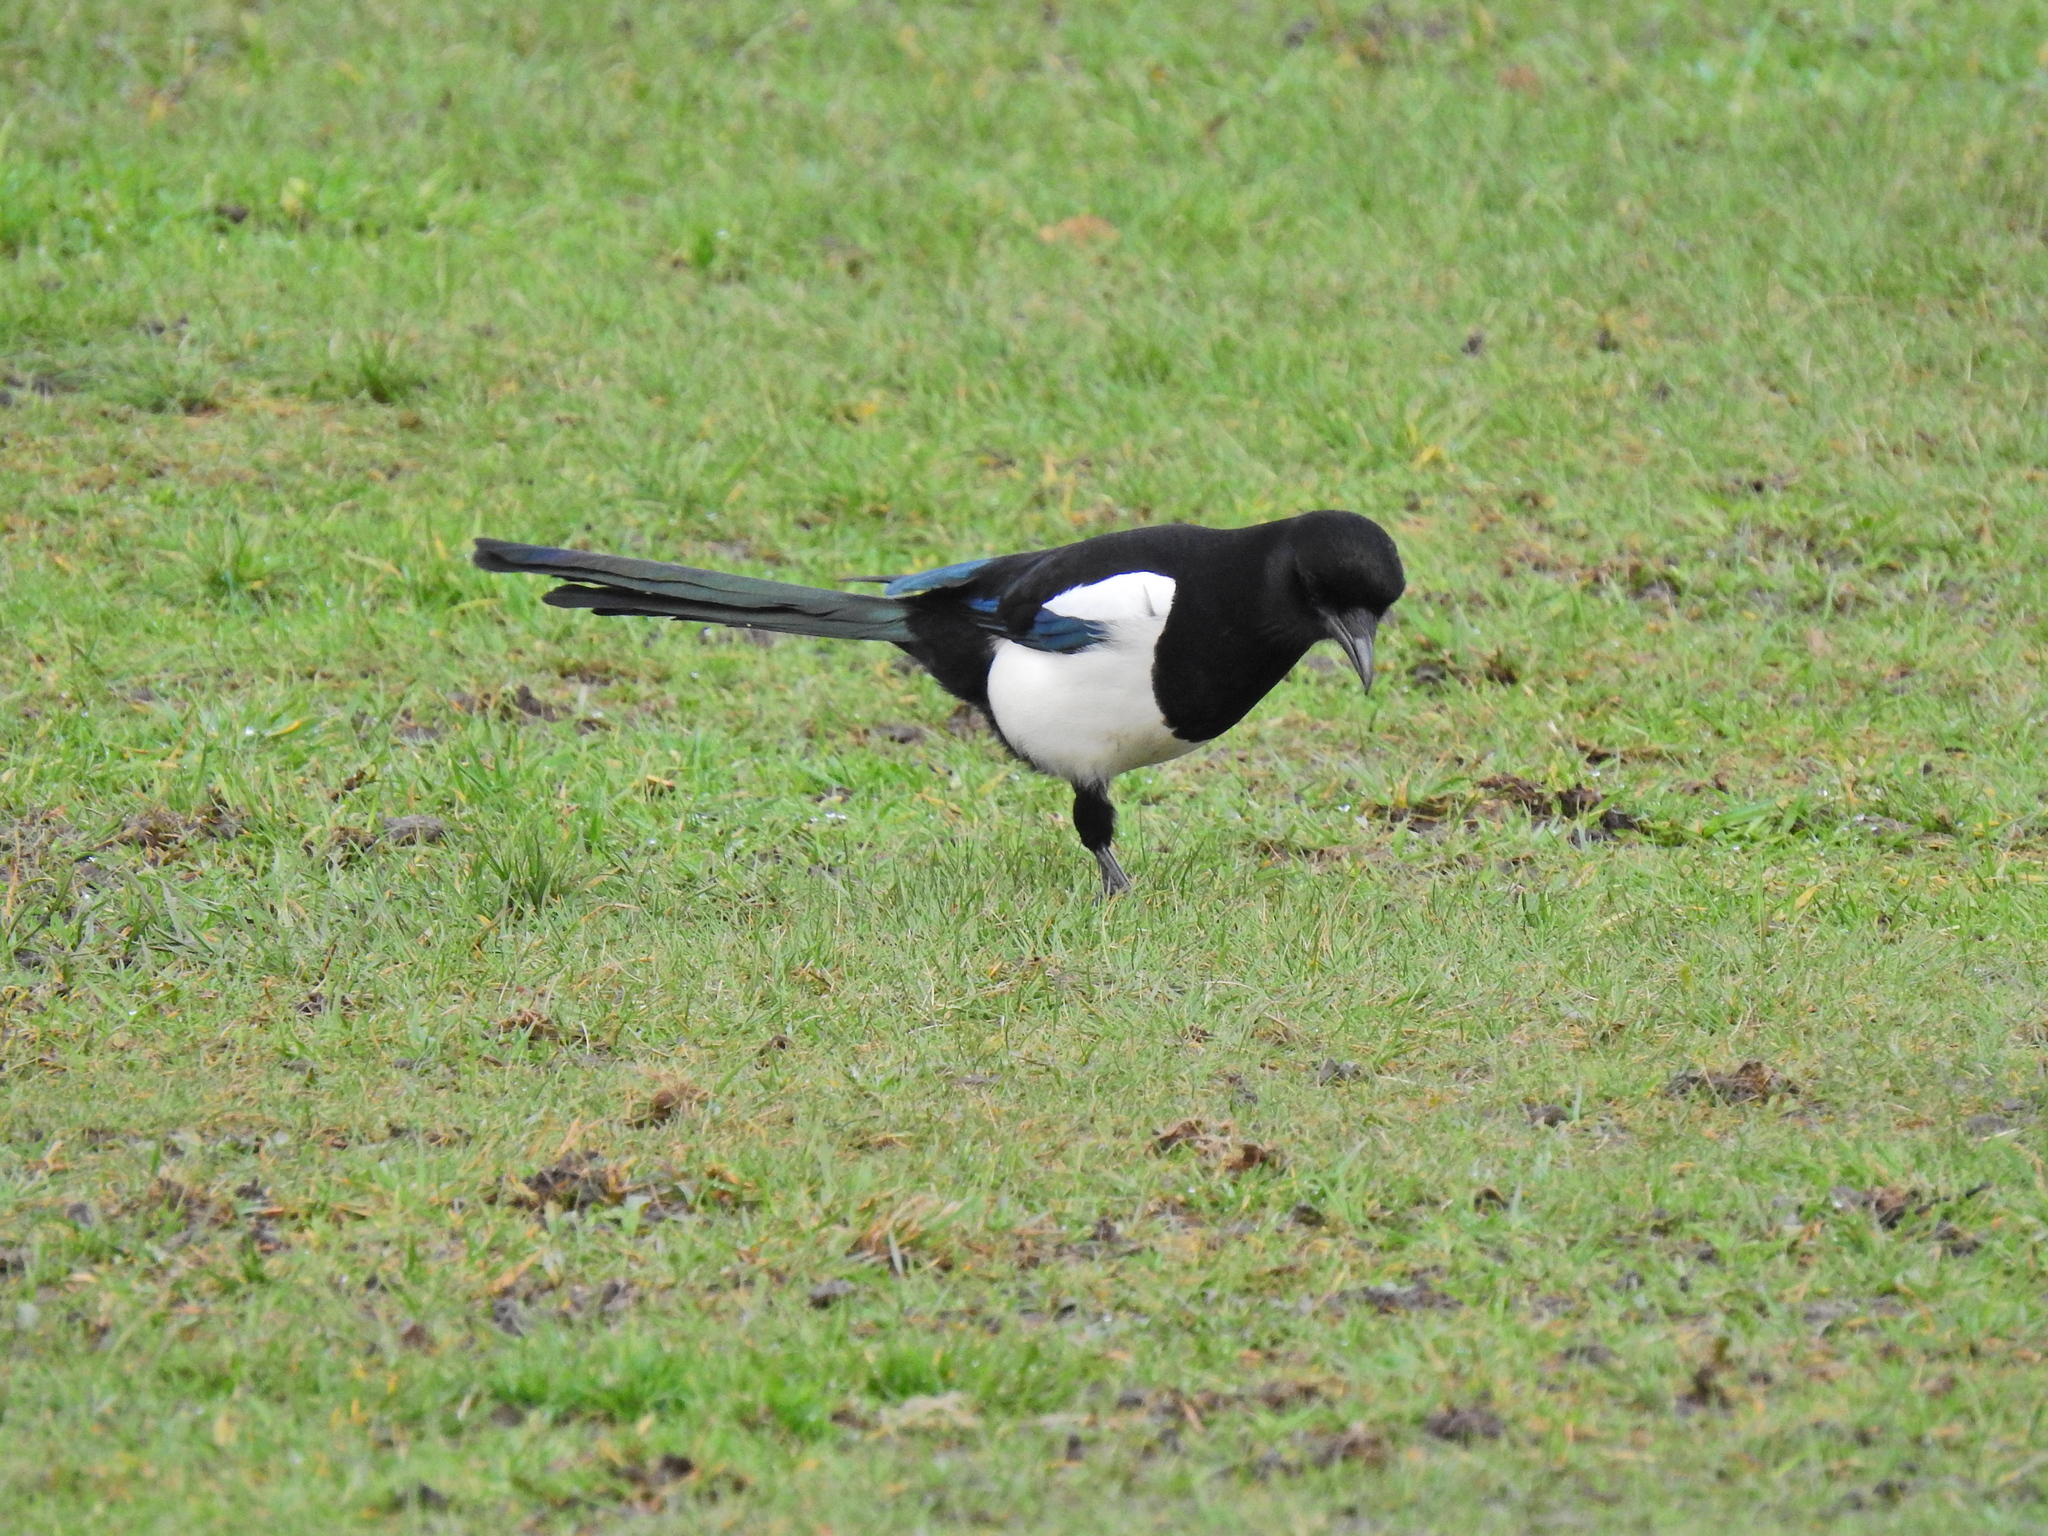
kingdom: Animalia
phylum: Chordata
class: Aves
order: Passeriformes
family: Corvidae
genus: Pica
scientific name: Pica pica
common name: Eurasian magpie
